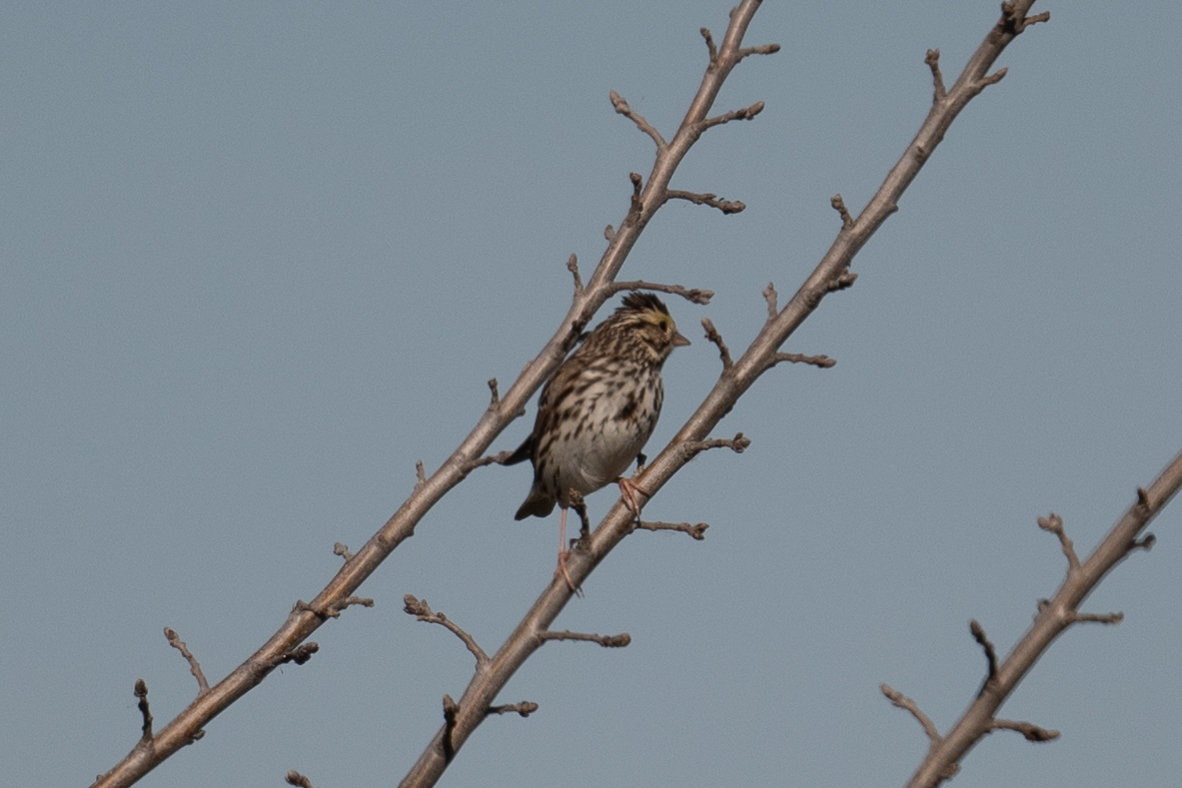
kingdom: Animalia
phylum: Chordata
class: Aves
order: Passeriformes
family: Passerellidae
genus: Passerculus
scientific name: Passerculus sandwichensis
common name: Savannah sparrow
